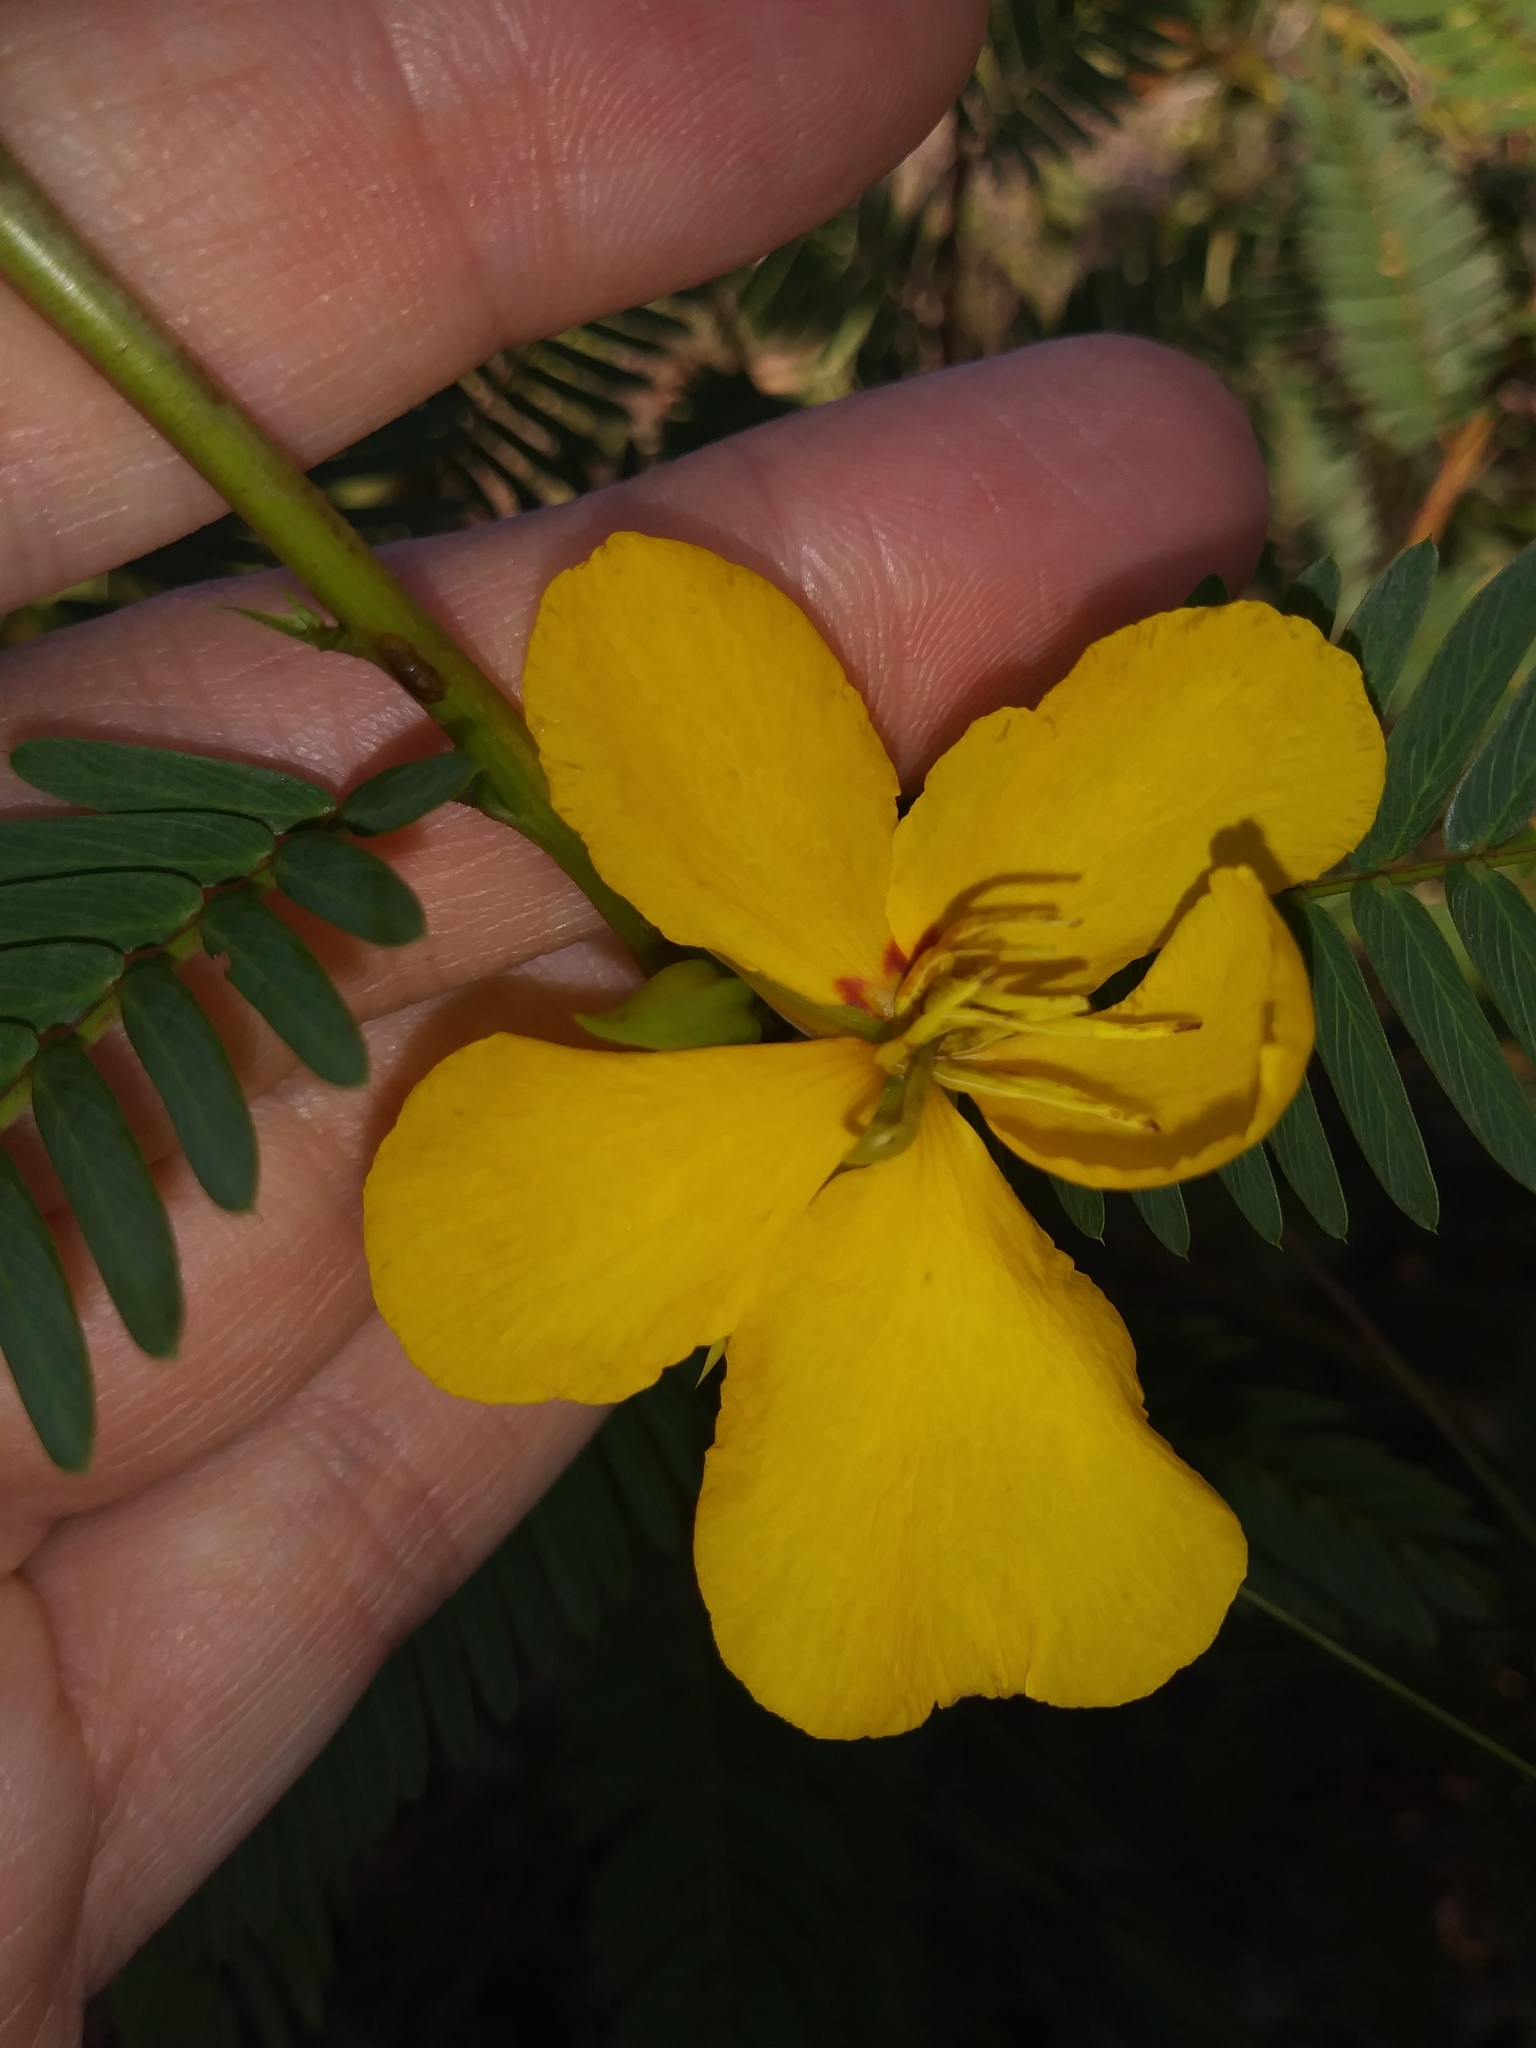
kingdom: Plantae
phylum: Tracheophyta
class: Magnoliopsida
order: Fabales
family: Fabaceae
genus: Chamaecrista
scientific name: Chamaecrista fasciculata
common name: Golden cassia
